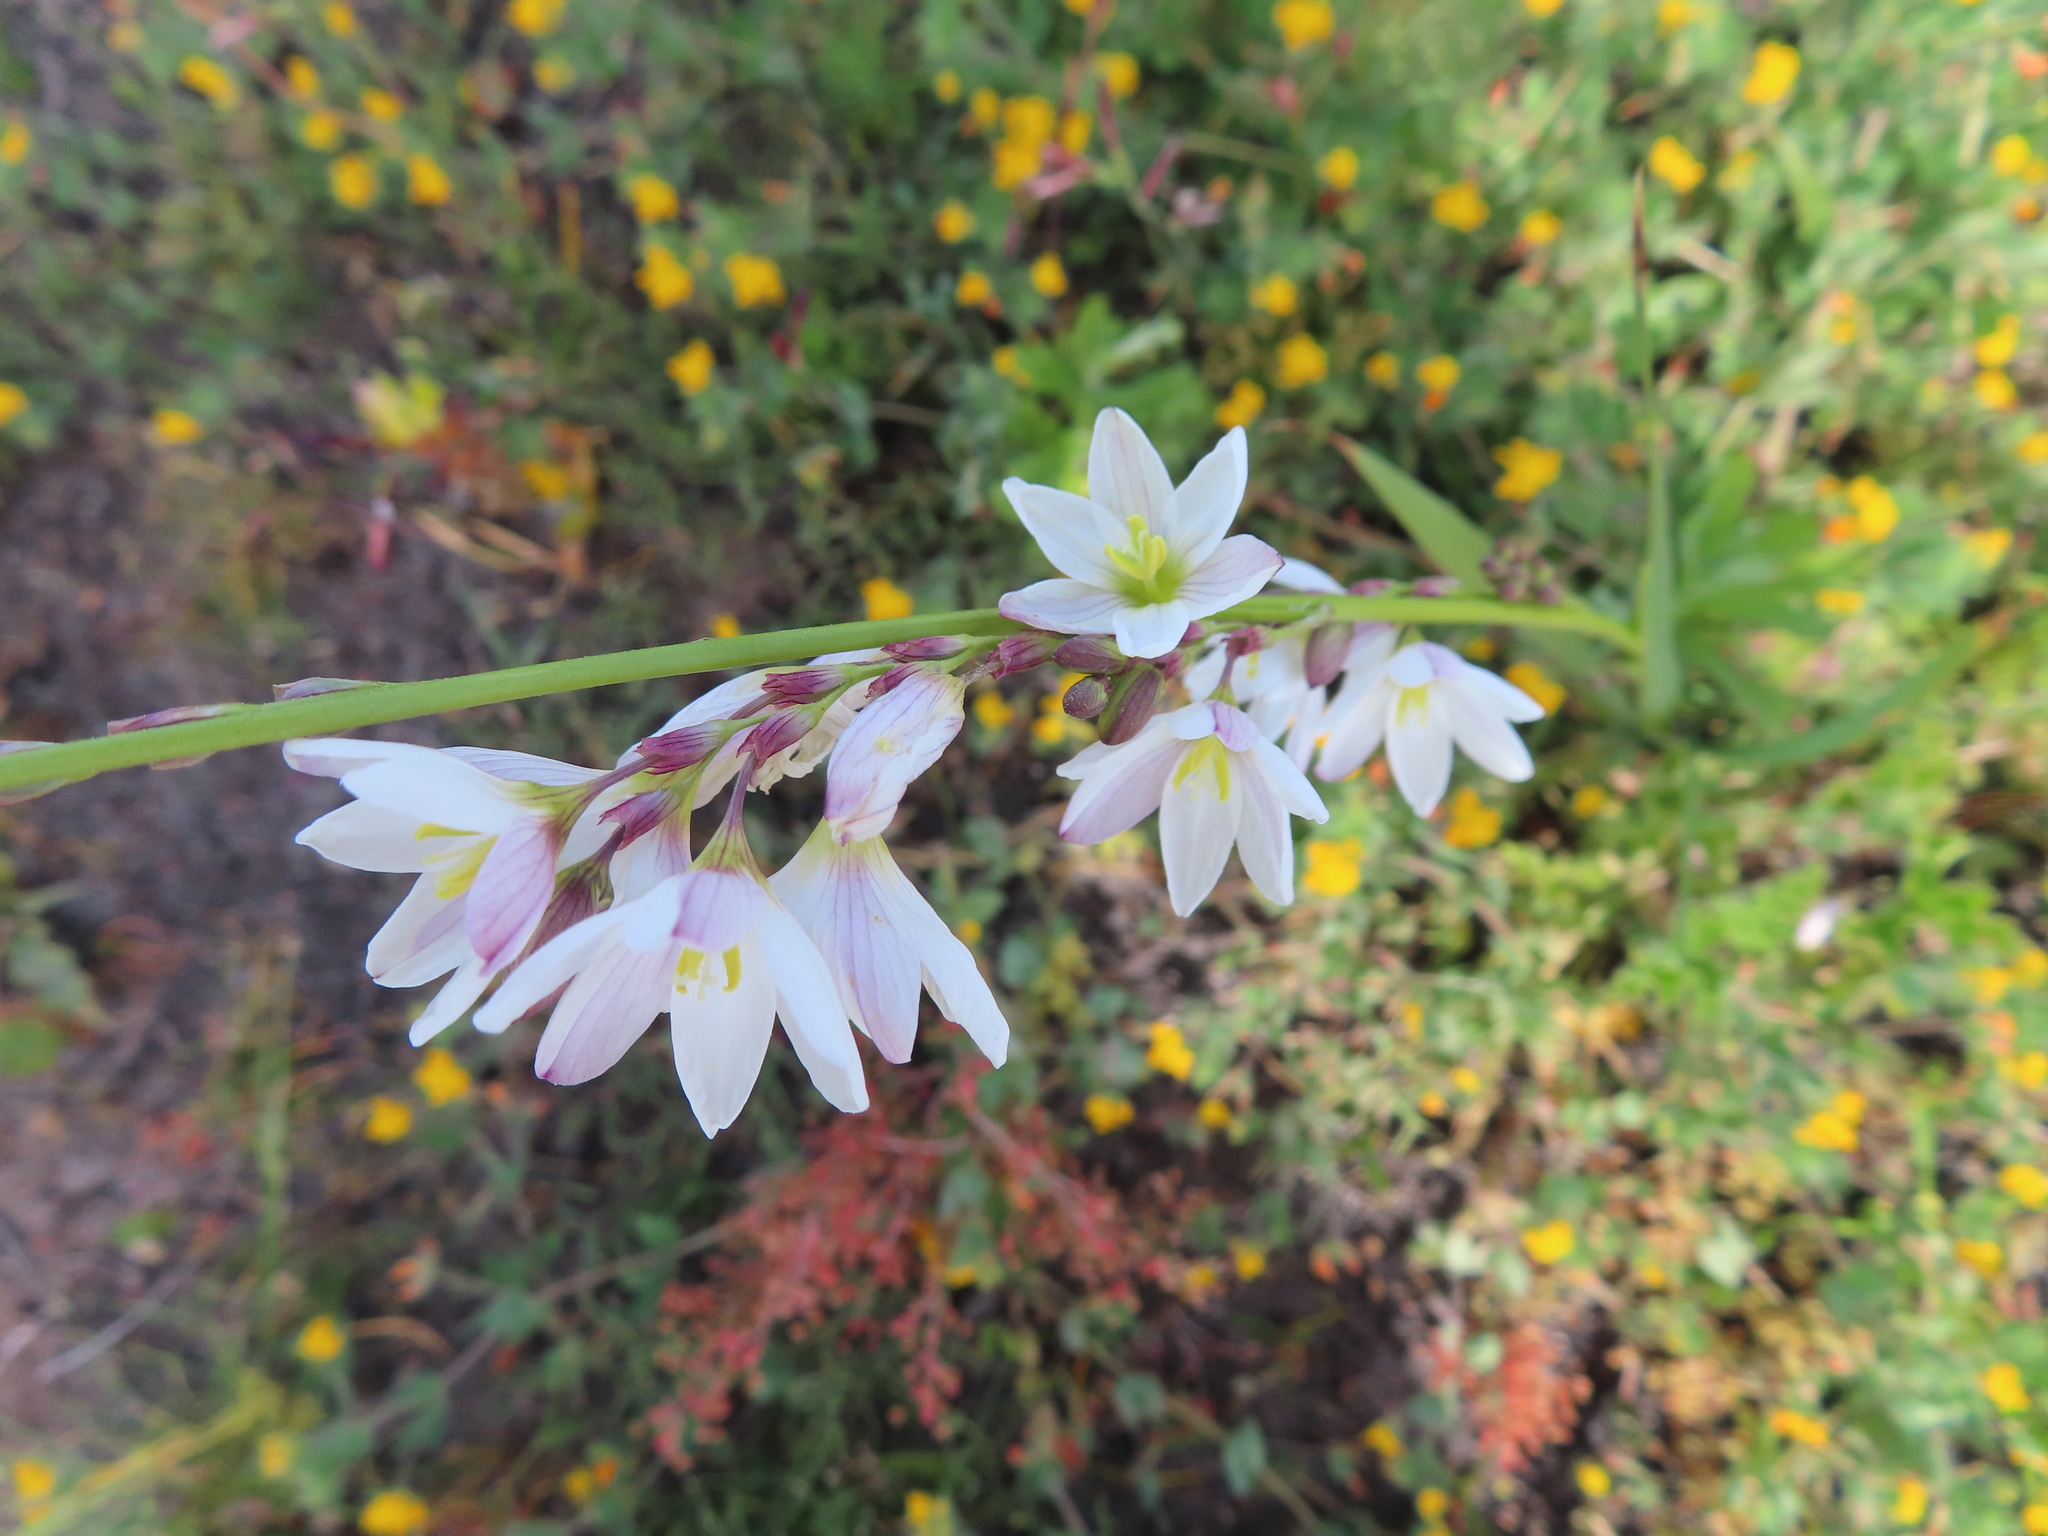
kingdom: Plantae
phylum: Tracheophyta
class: Liliopsida
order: Asparagales
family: Iridaceae
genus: Ixia
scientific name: Ixia flexuosa
